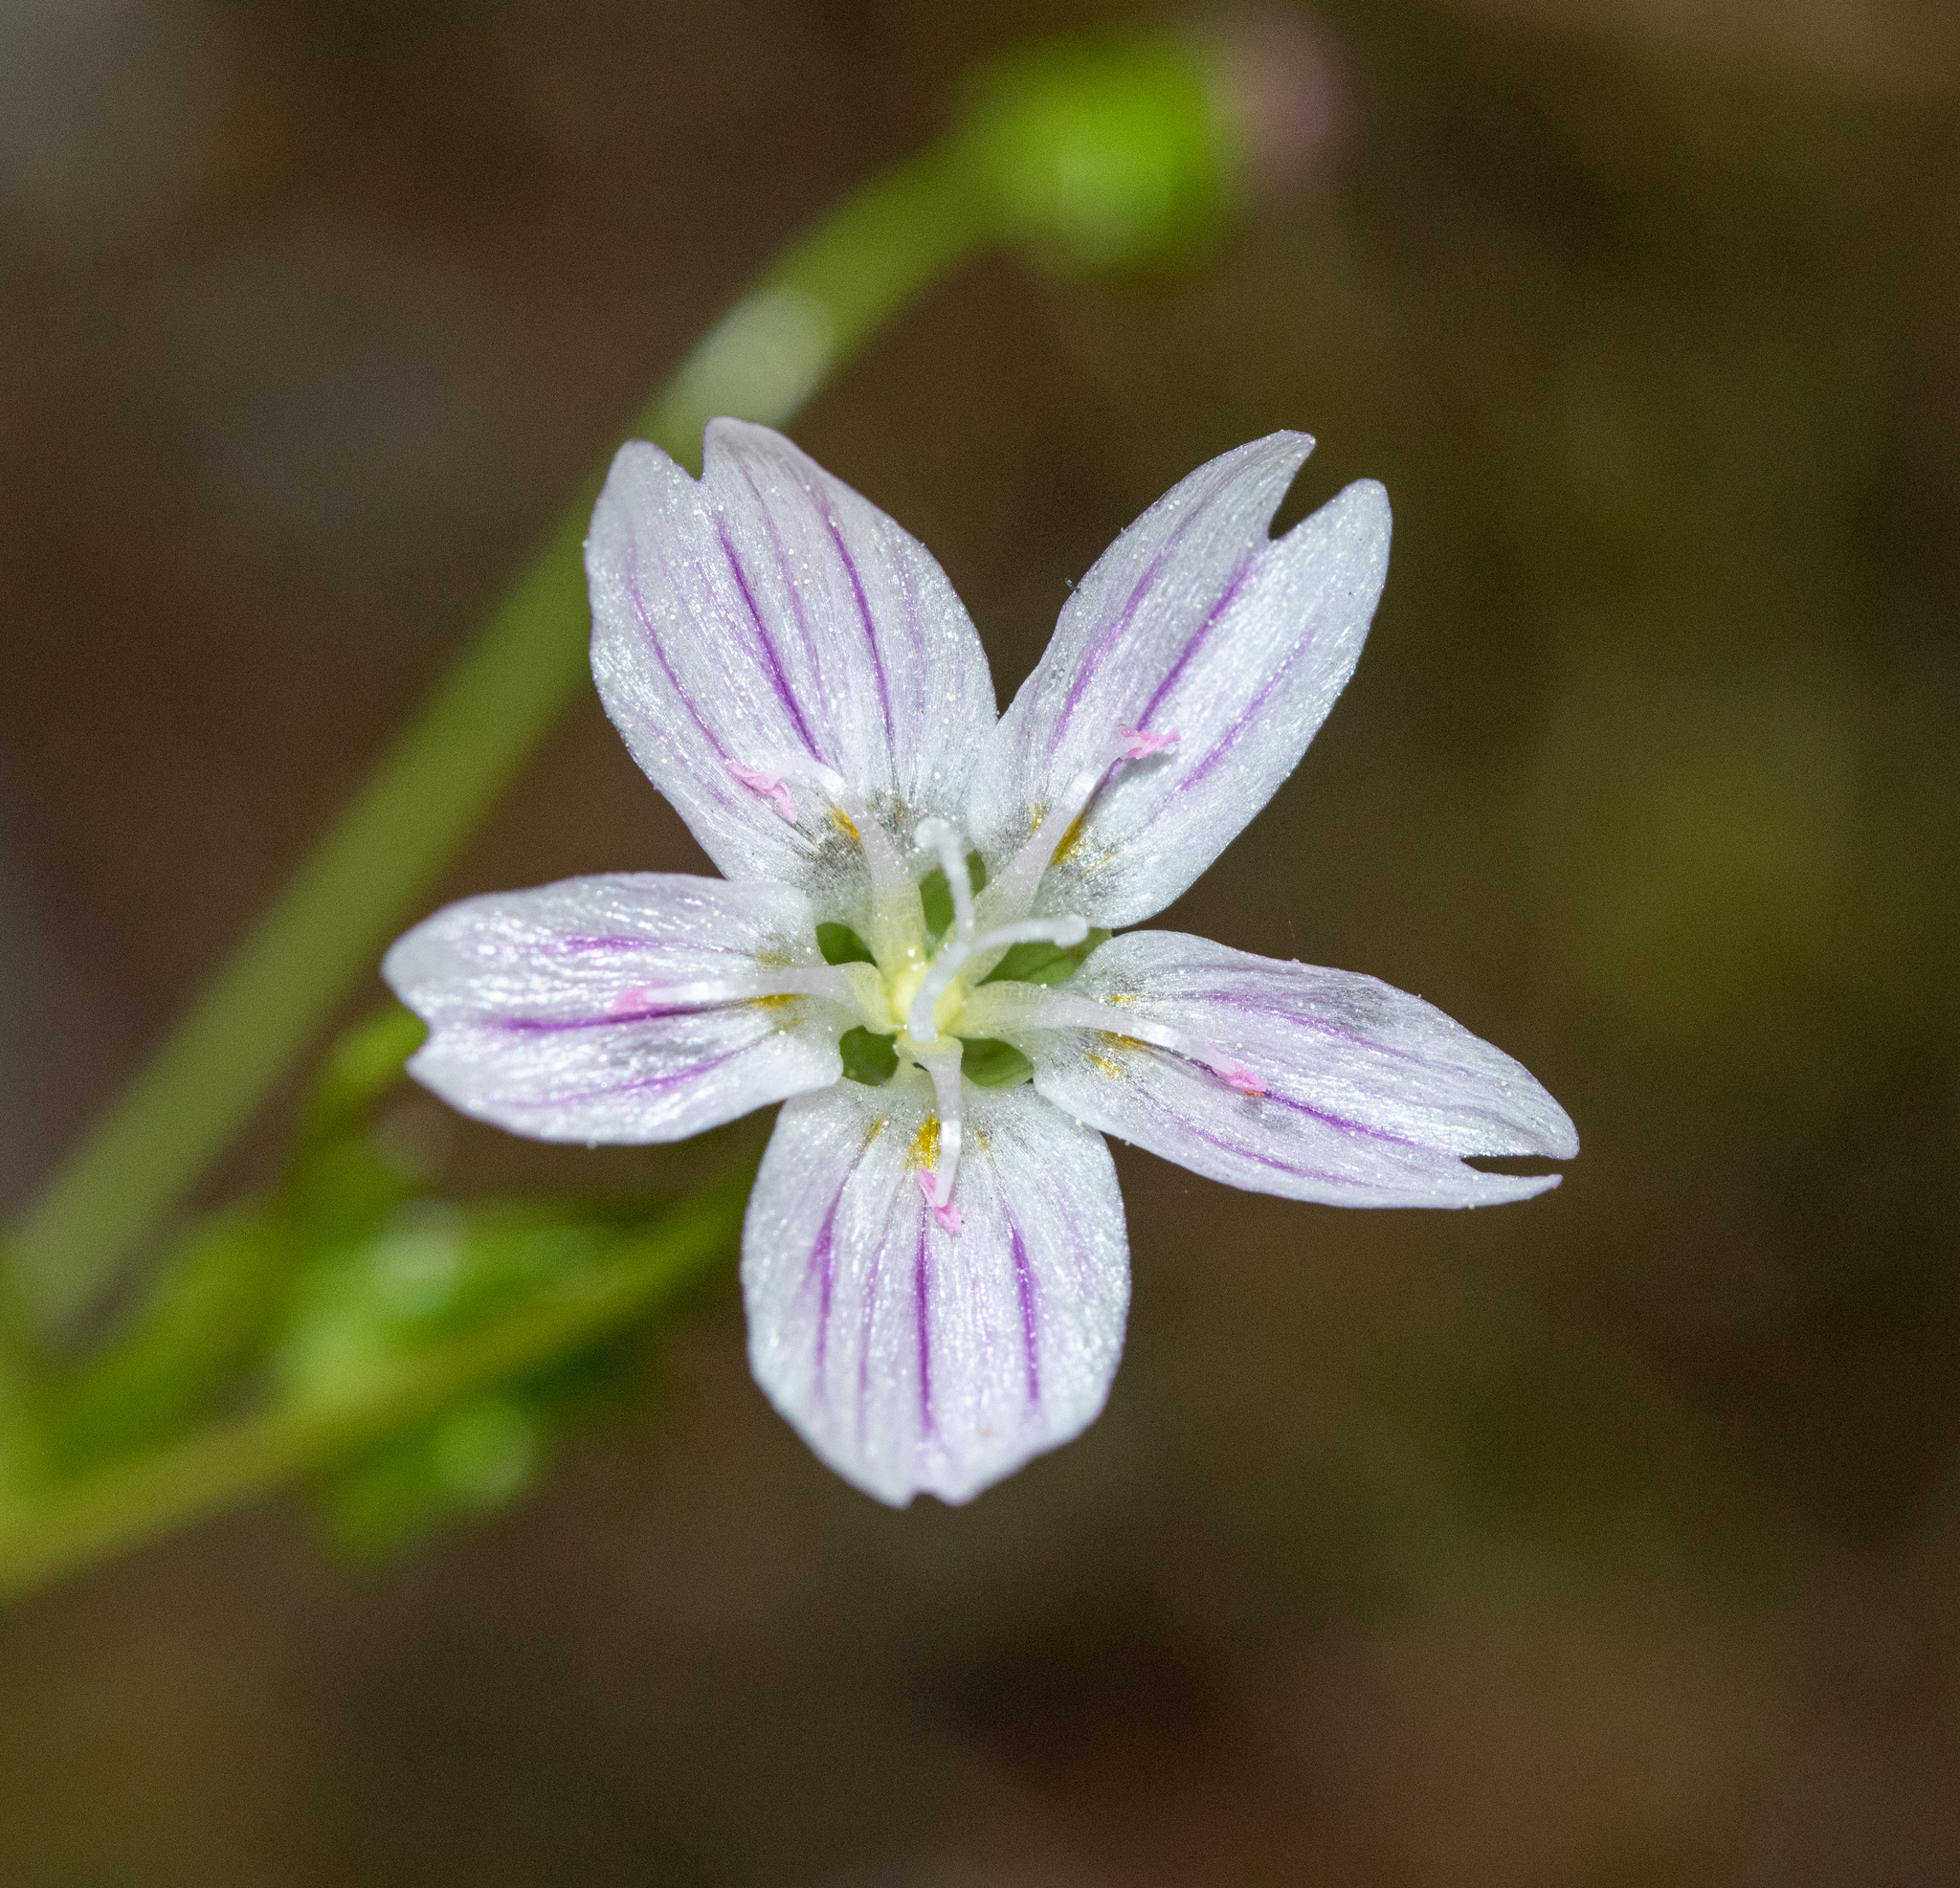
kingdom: Plantae
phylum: Tracheophyta
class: Magnoliopsida
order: Caryophyllales
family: Montiaceae
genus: Claytonia
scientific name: Claytonia sibirica
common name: Pink purslane
